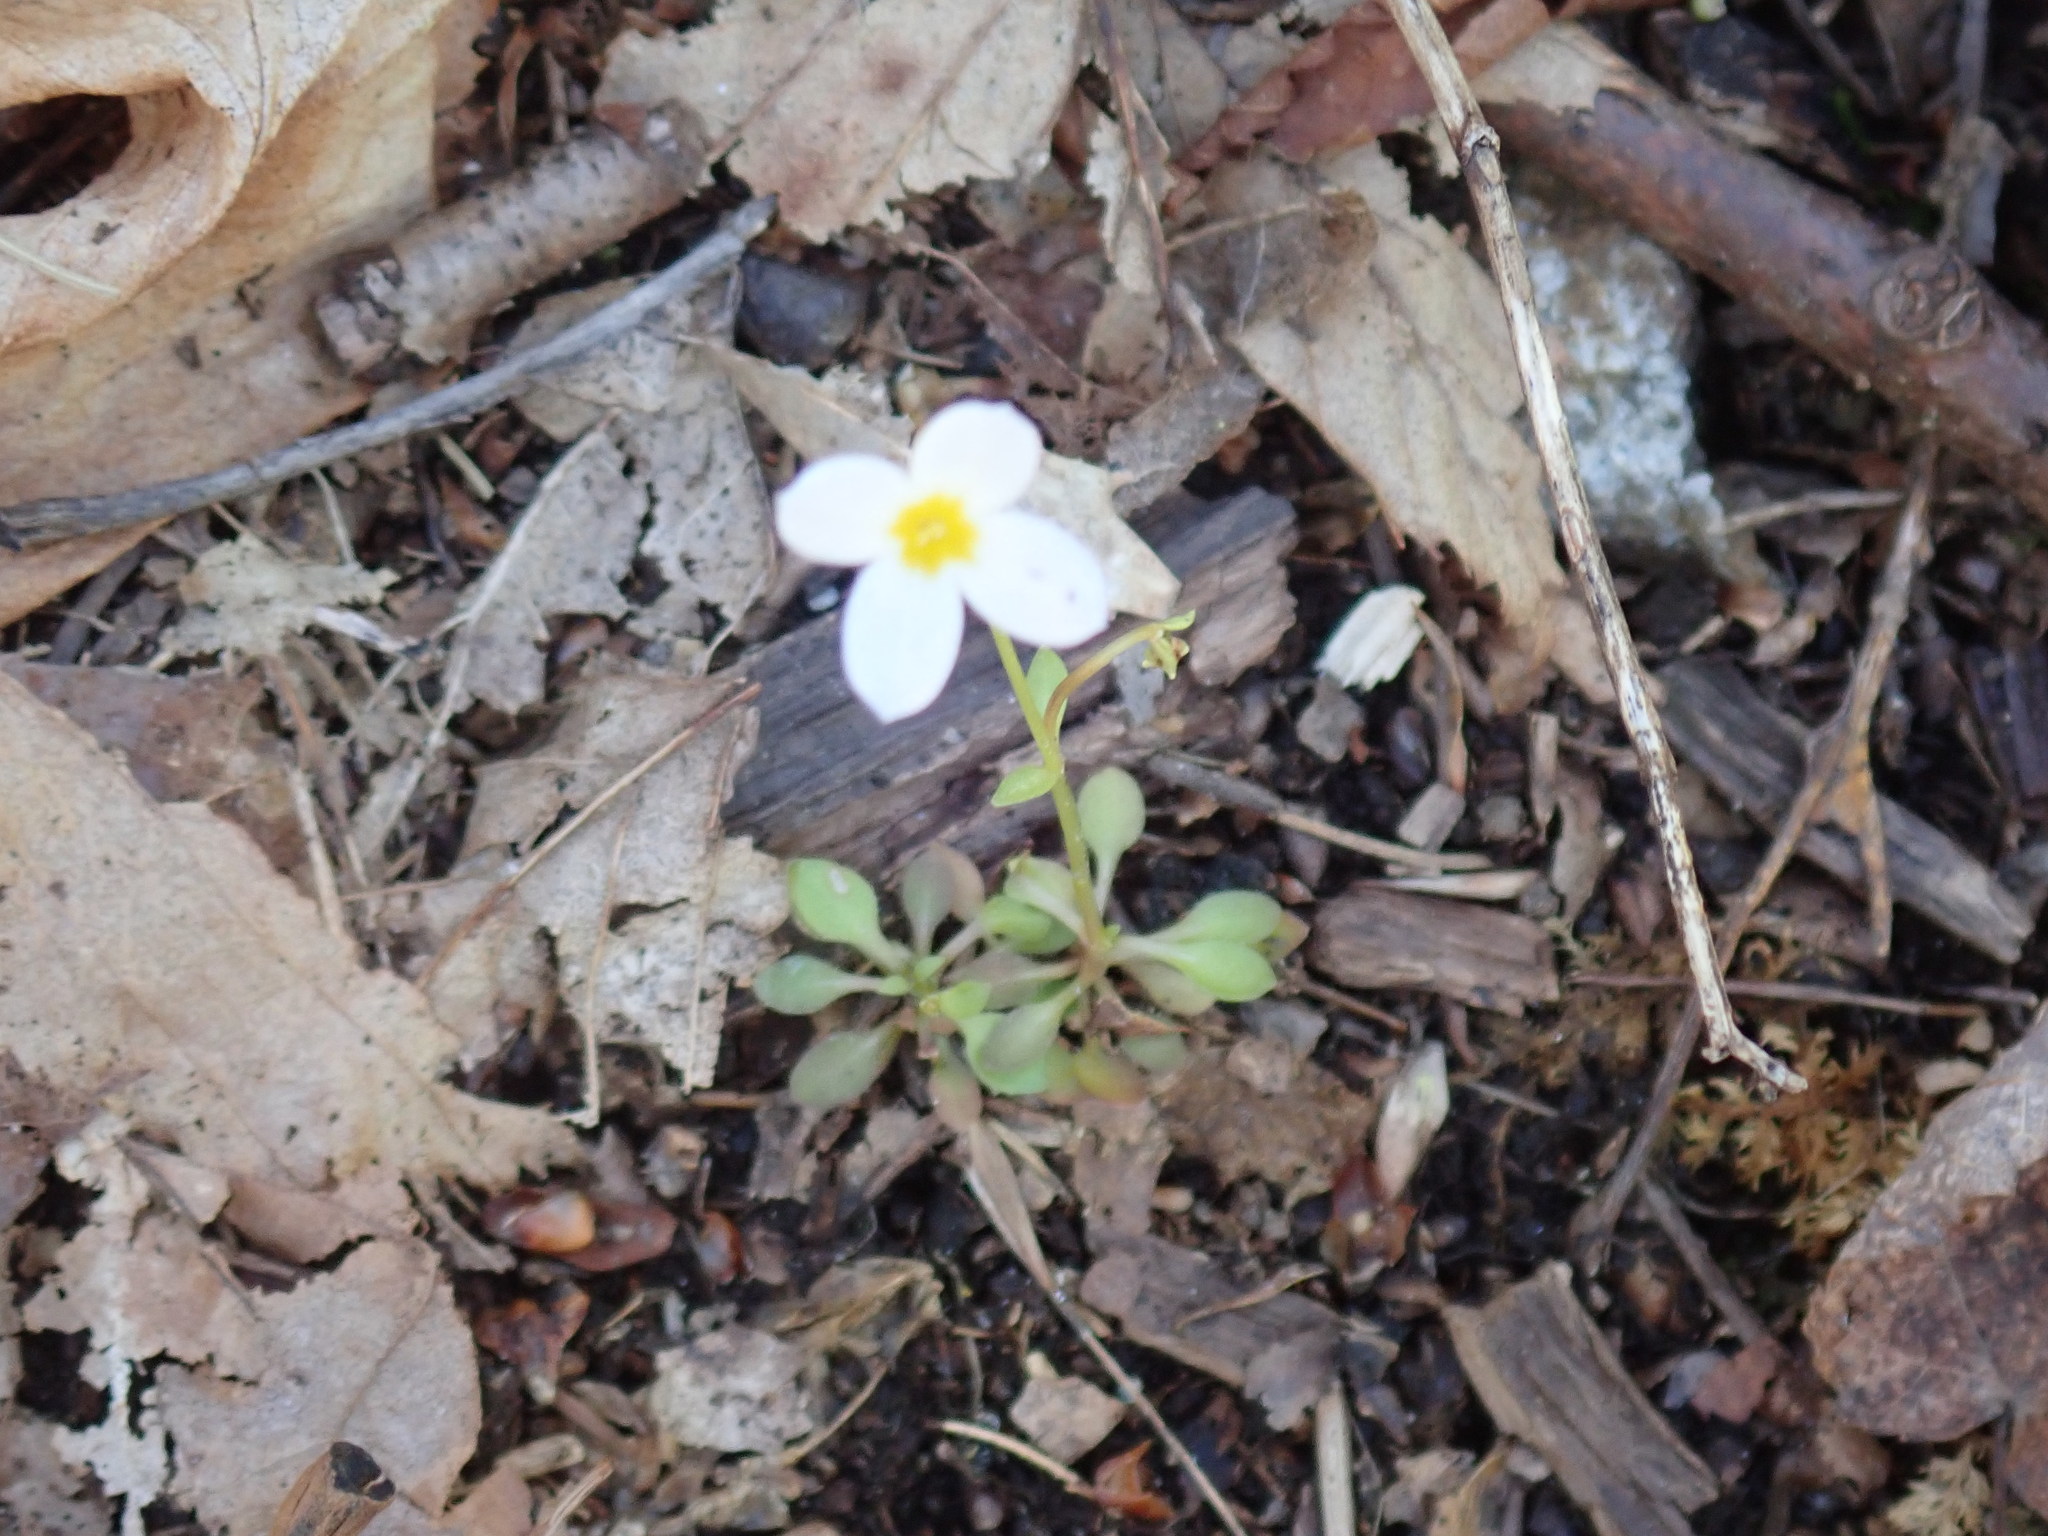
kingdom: Plantae
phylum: Tracheophyta
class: Magnoliopsida
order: Gentianales
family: Rubiaceae
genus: Houstonia
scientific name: Houstonia caerulea
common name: Bluets
